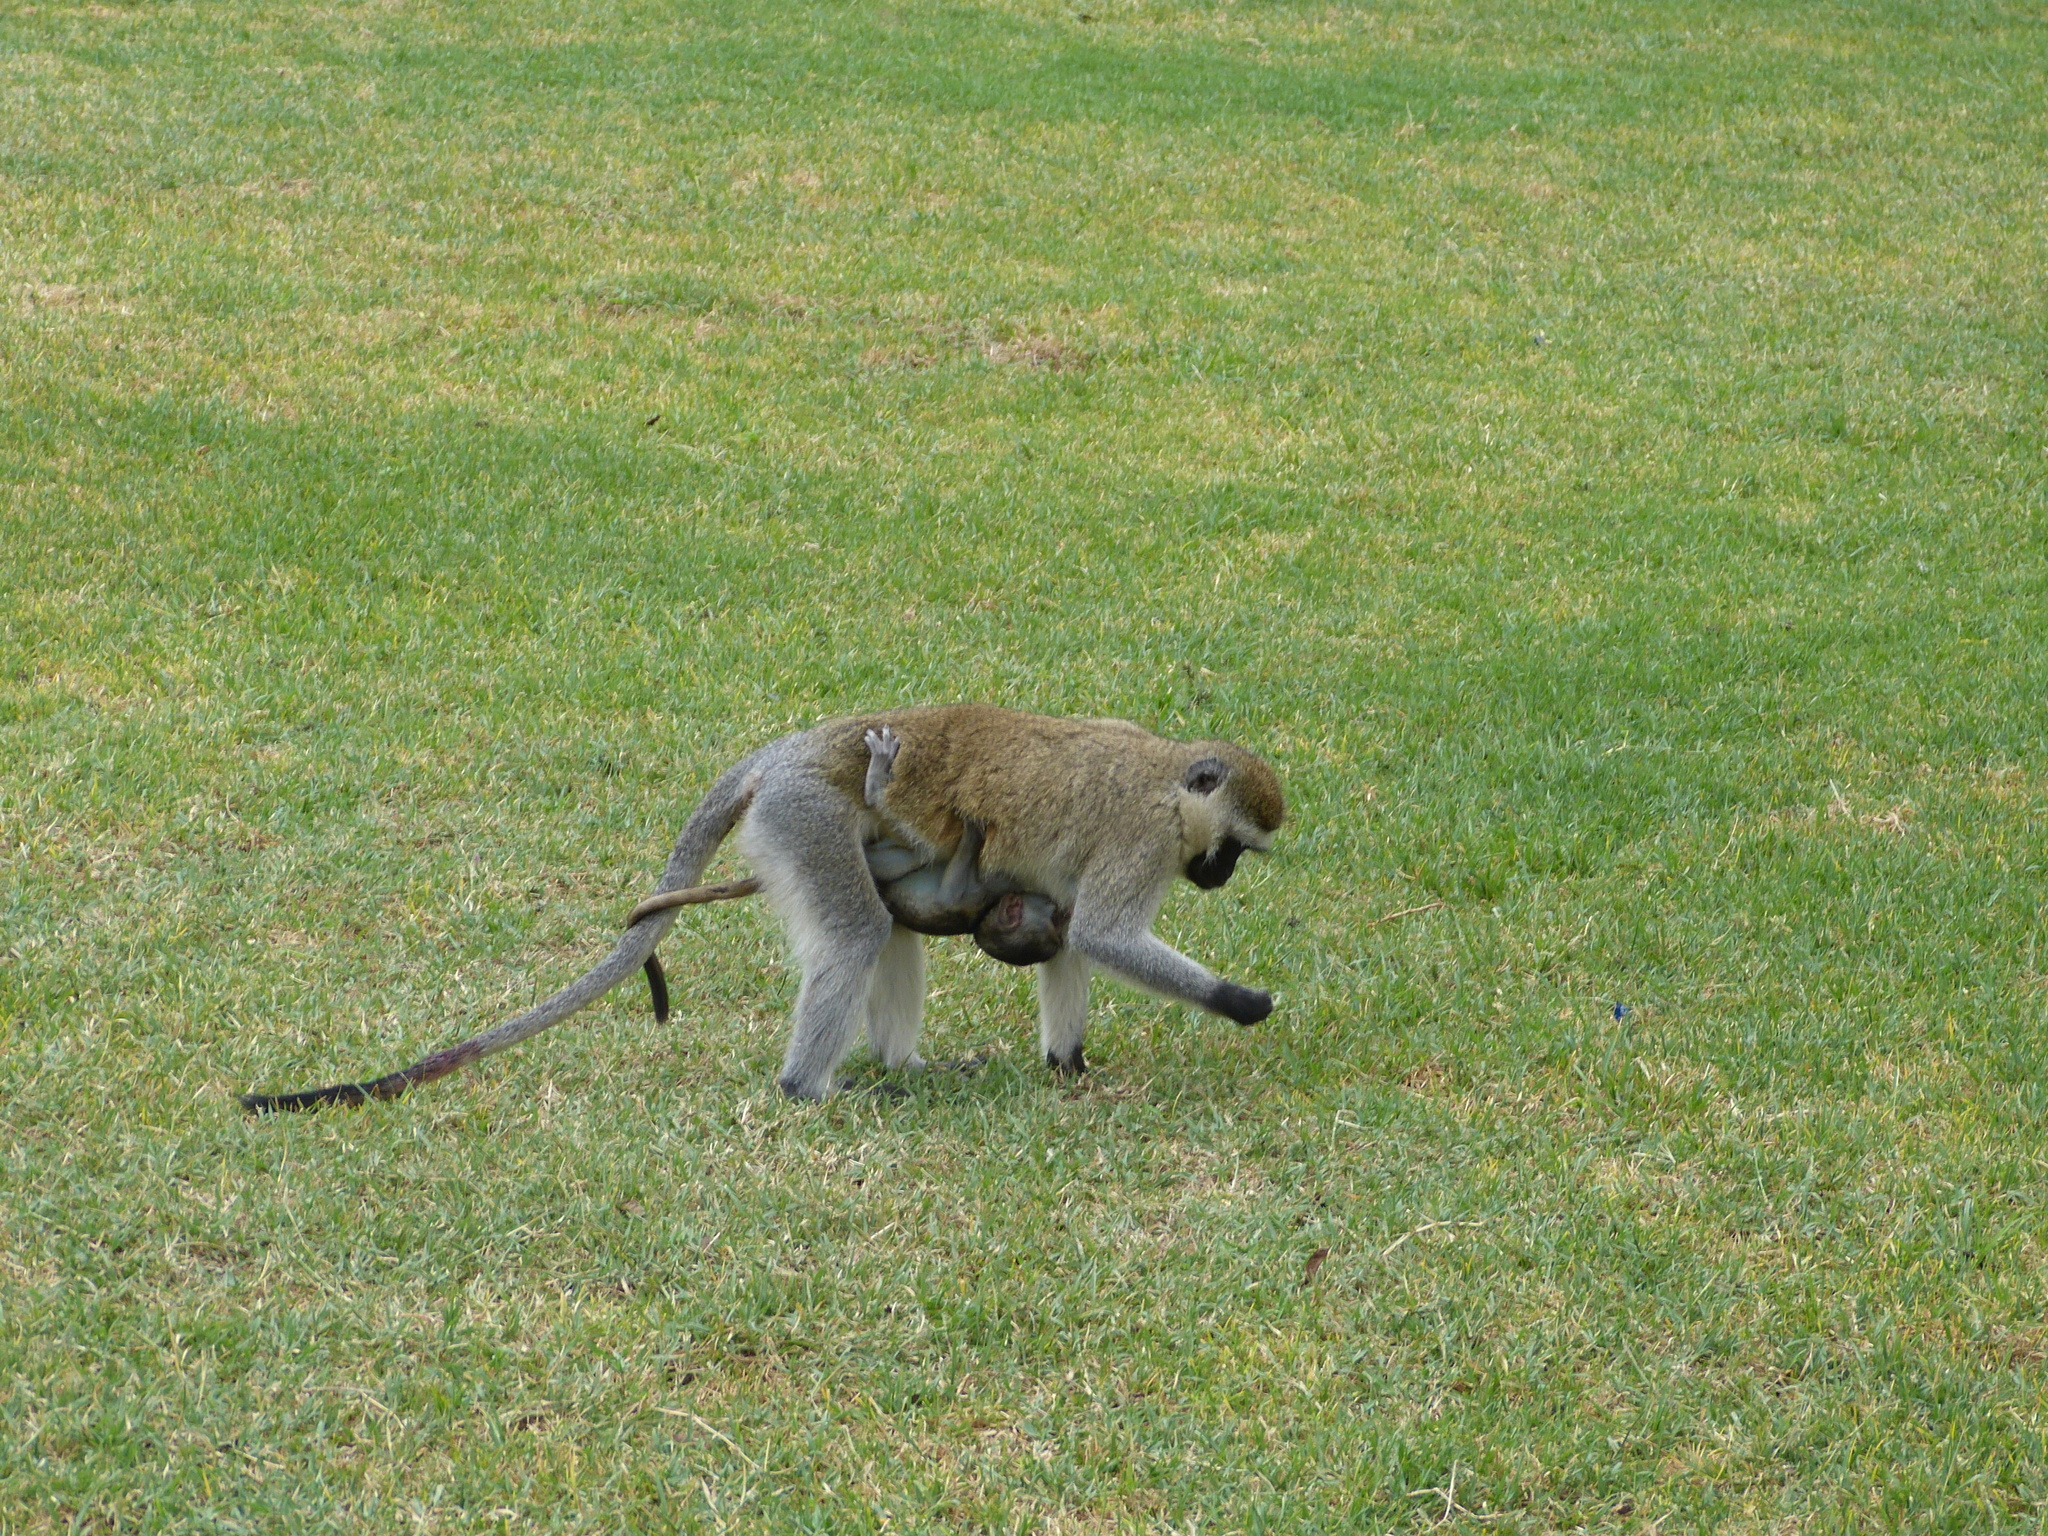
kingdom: Animalia
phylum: Chordata
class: Mammalia
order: Primates
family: Cercopithecidae
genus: Chlorocebus
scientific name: Chlorocebus pygerythrus
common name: Vervet monkey
